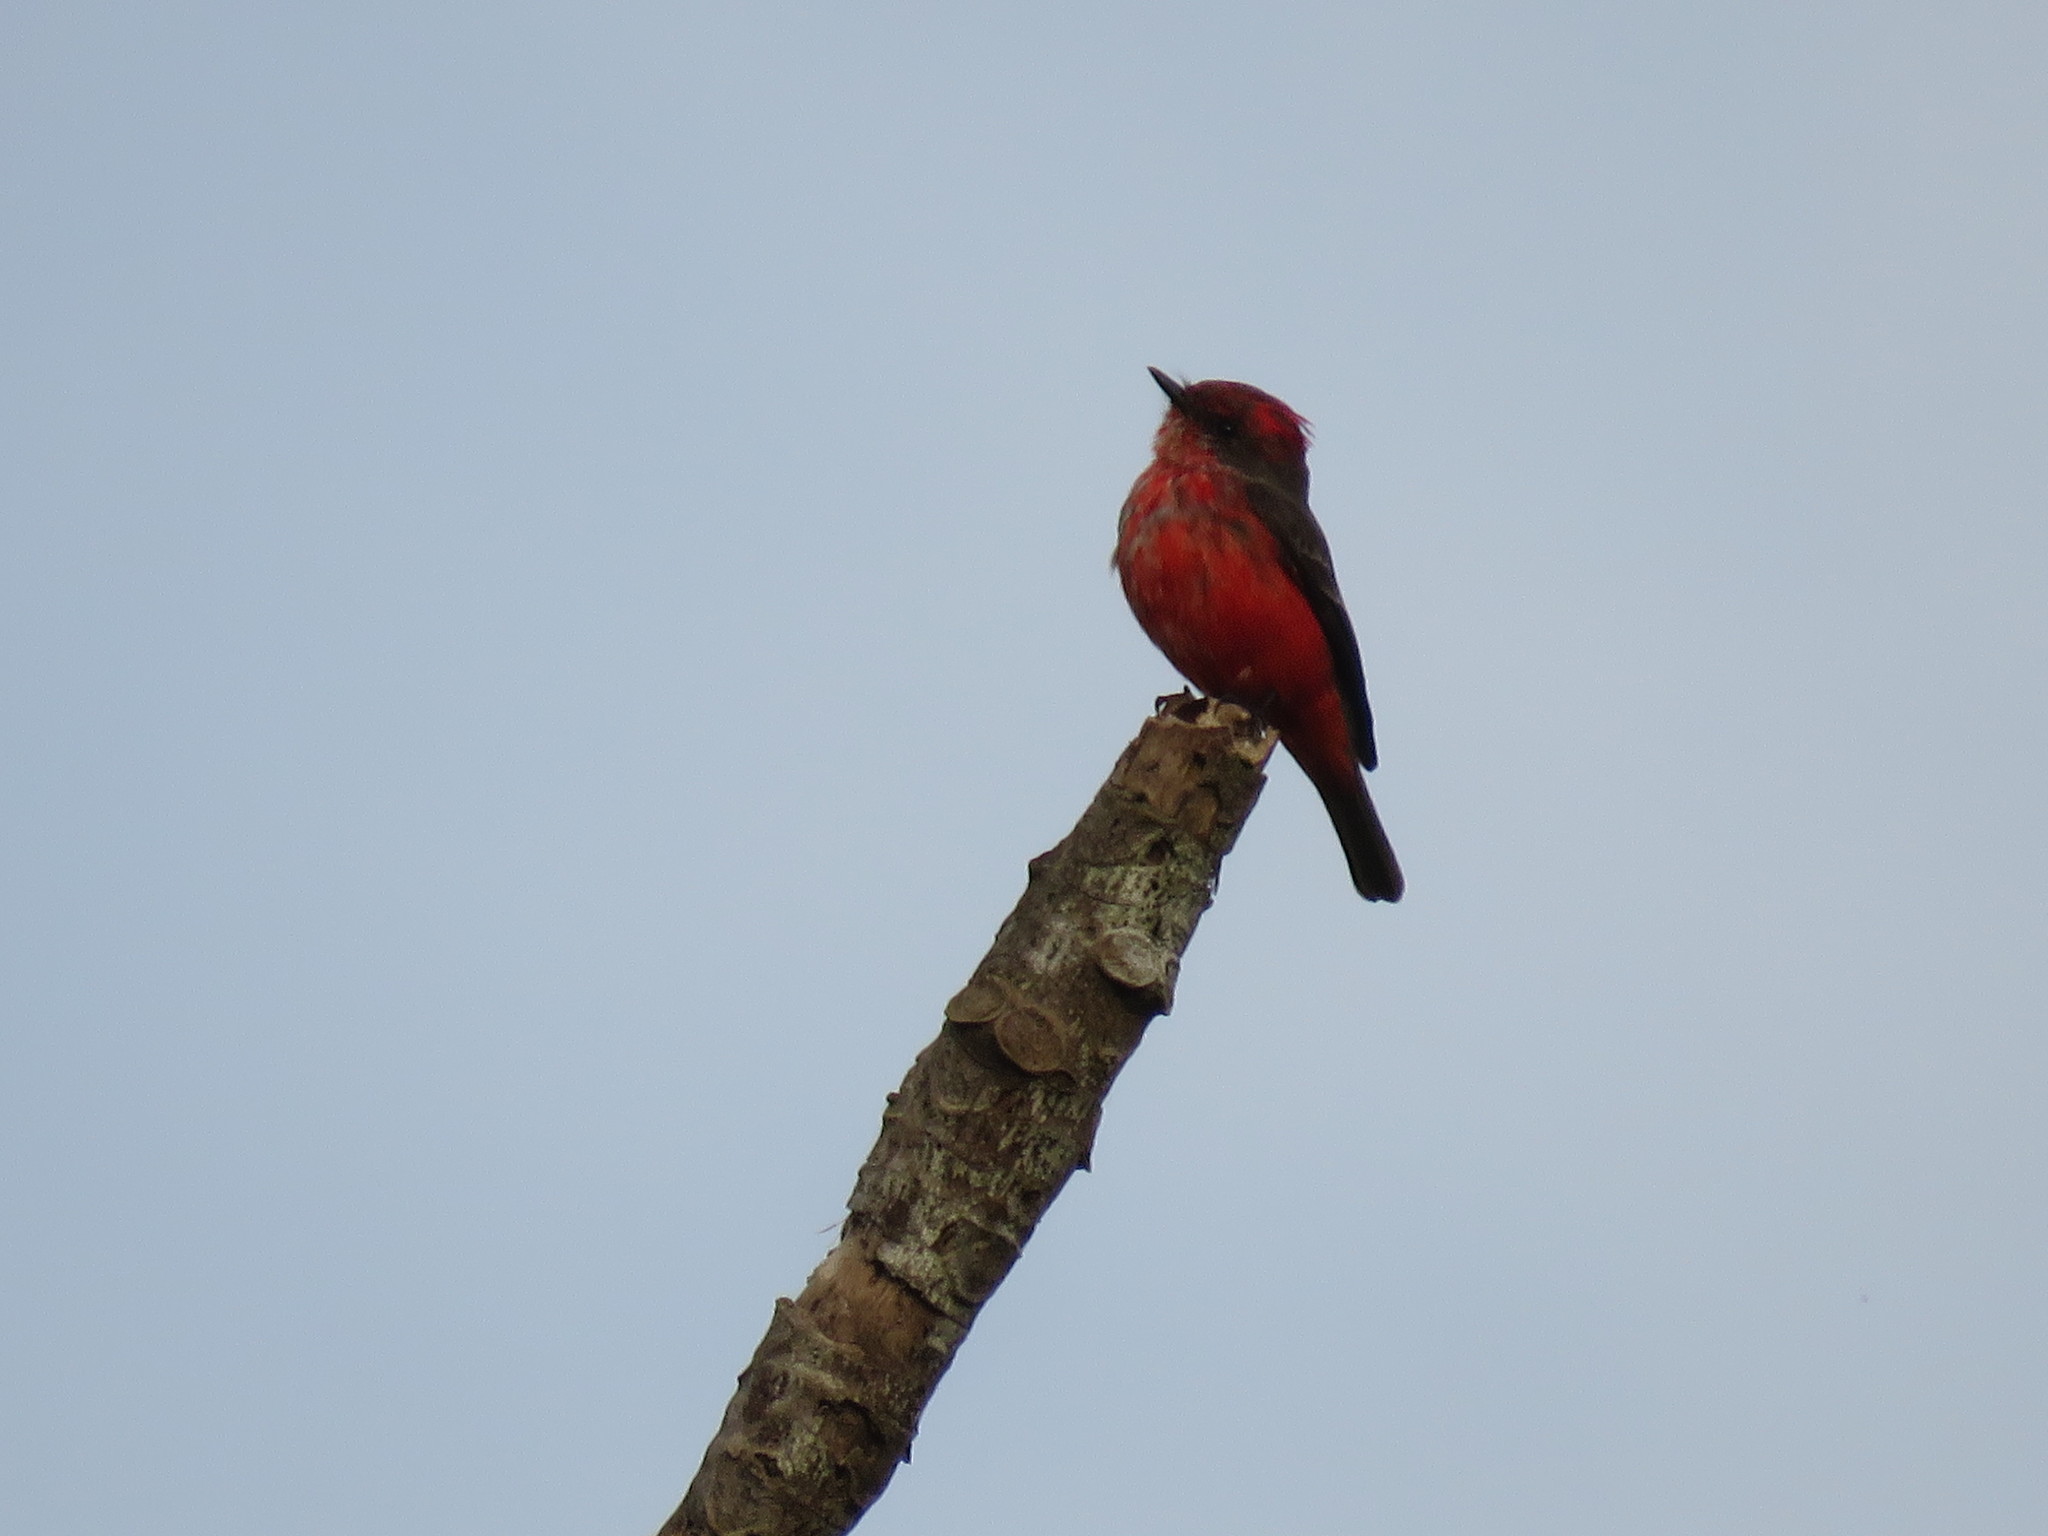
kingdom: Animalia
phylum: Chordata
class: Aves
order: Passeriformes
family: Tyrannidae
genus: Pyrocephalus
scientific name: Pyrocephalus rubinus
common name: Vermilion flycatcher
